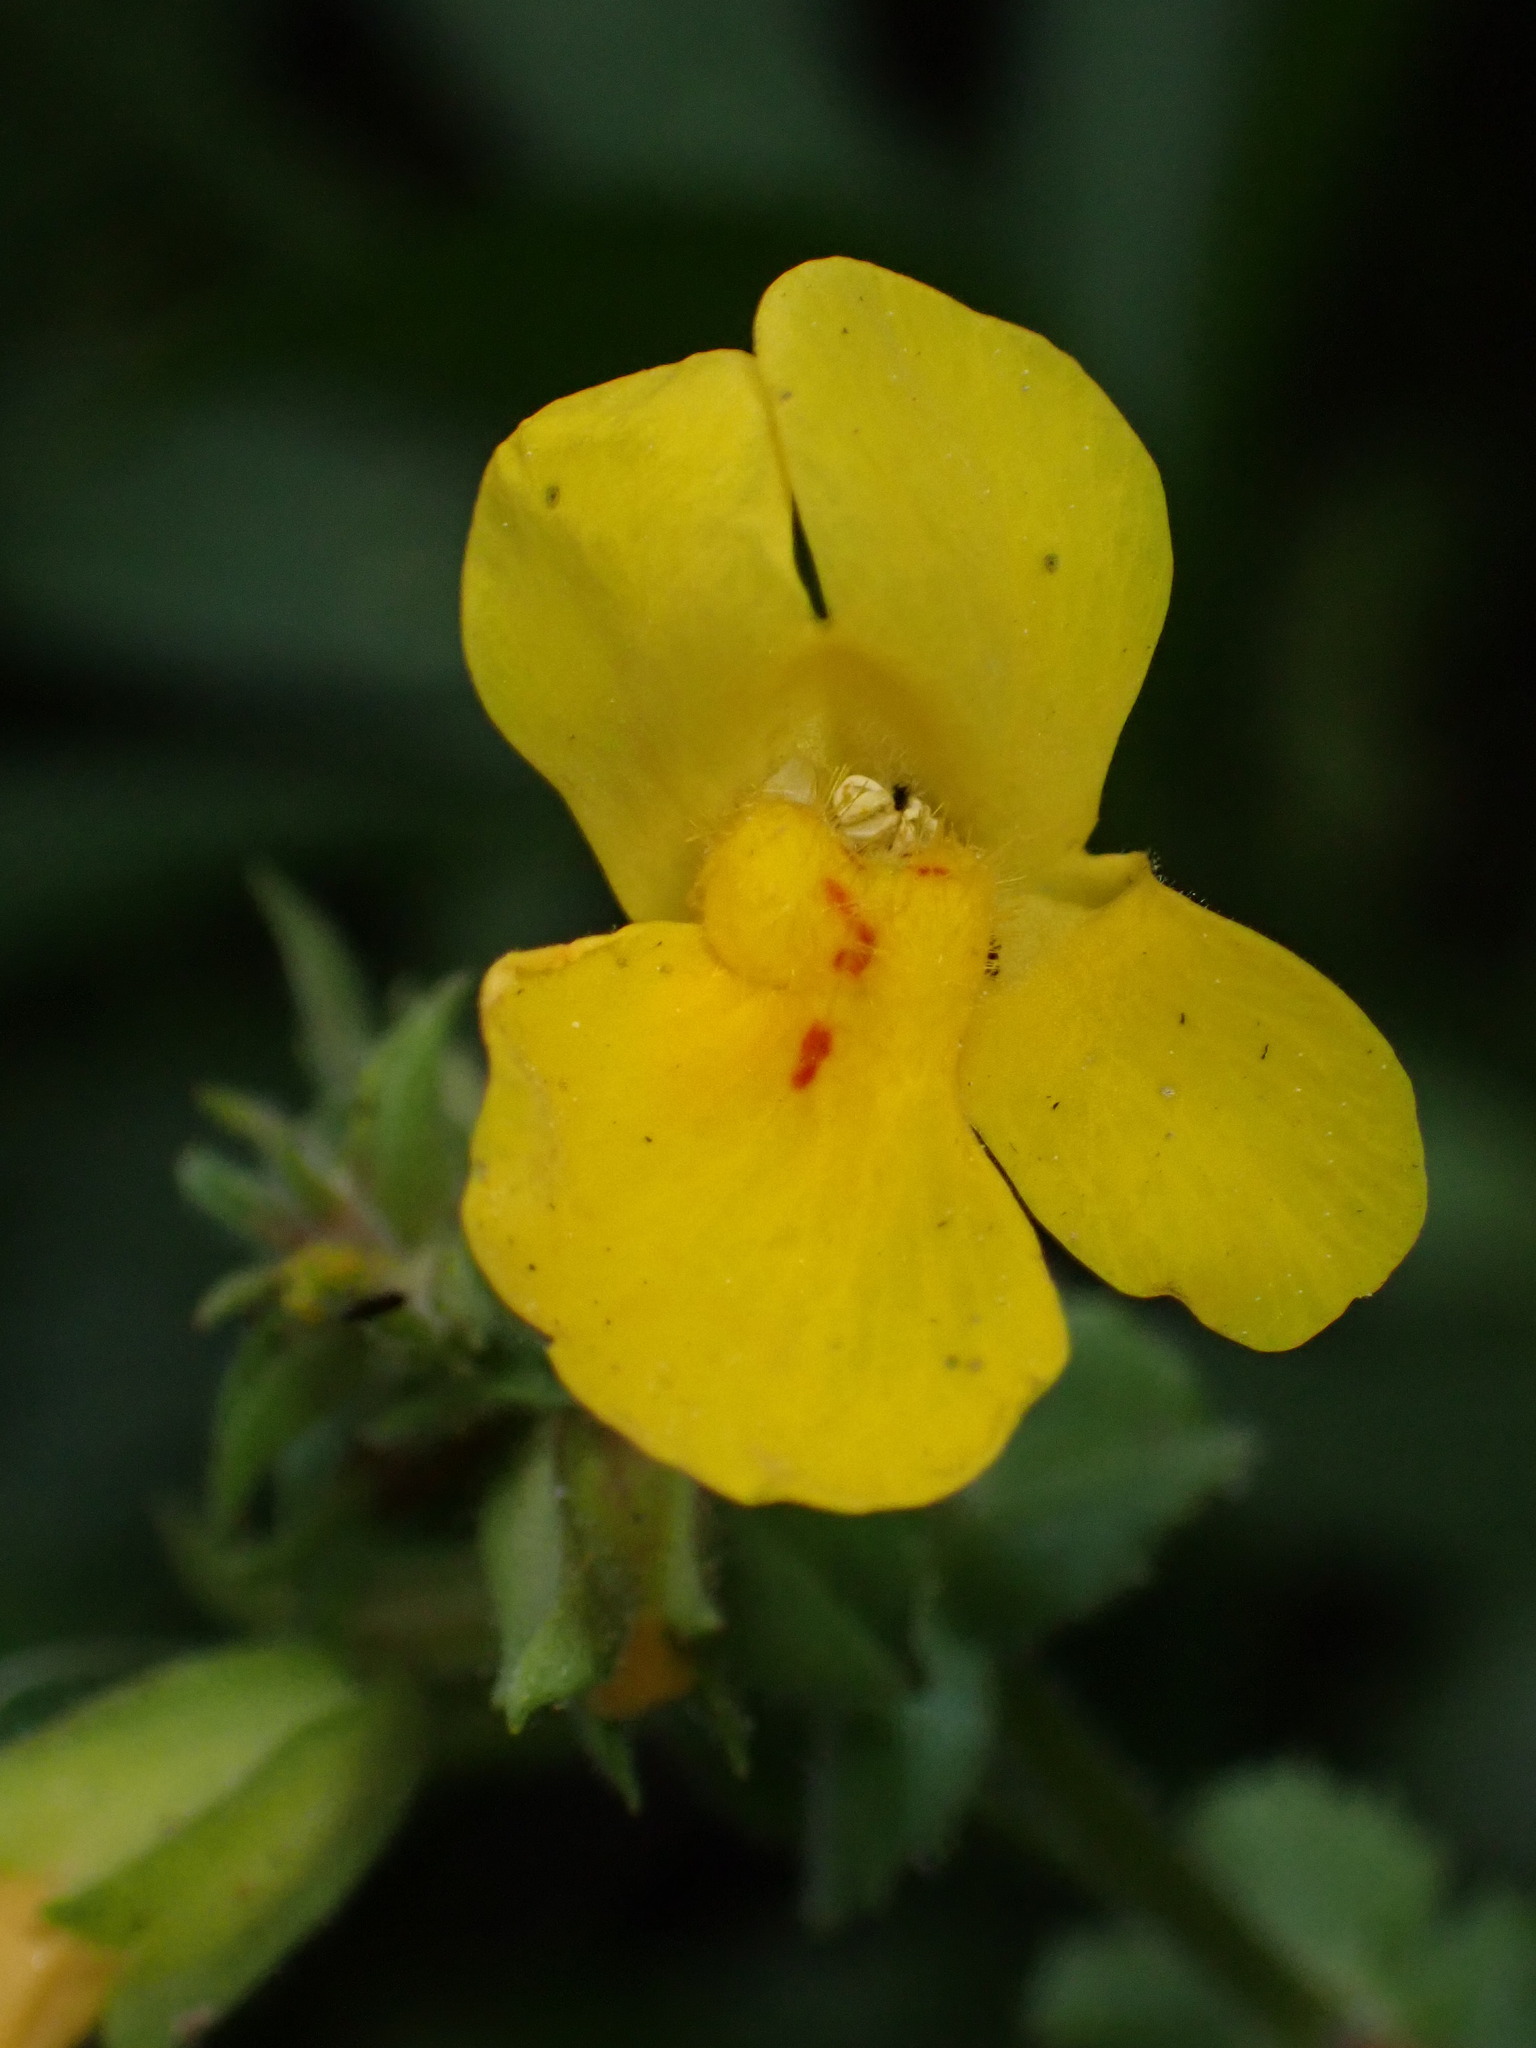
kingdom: Plantae
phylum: Tracheophyta
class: Magnoliopsida
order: Lamiales
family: Phrymaceae
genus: Erythranthe
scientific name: Erythranthe guttata
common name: Monkeyflower
